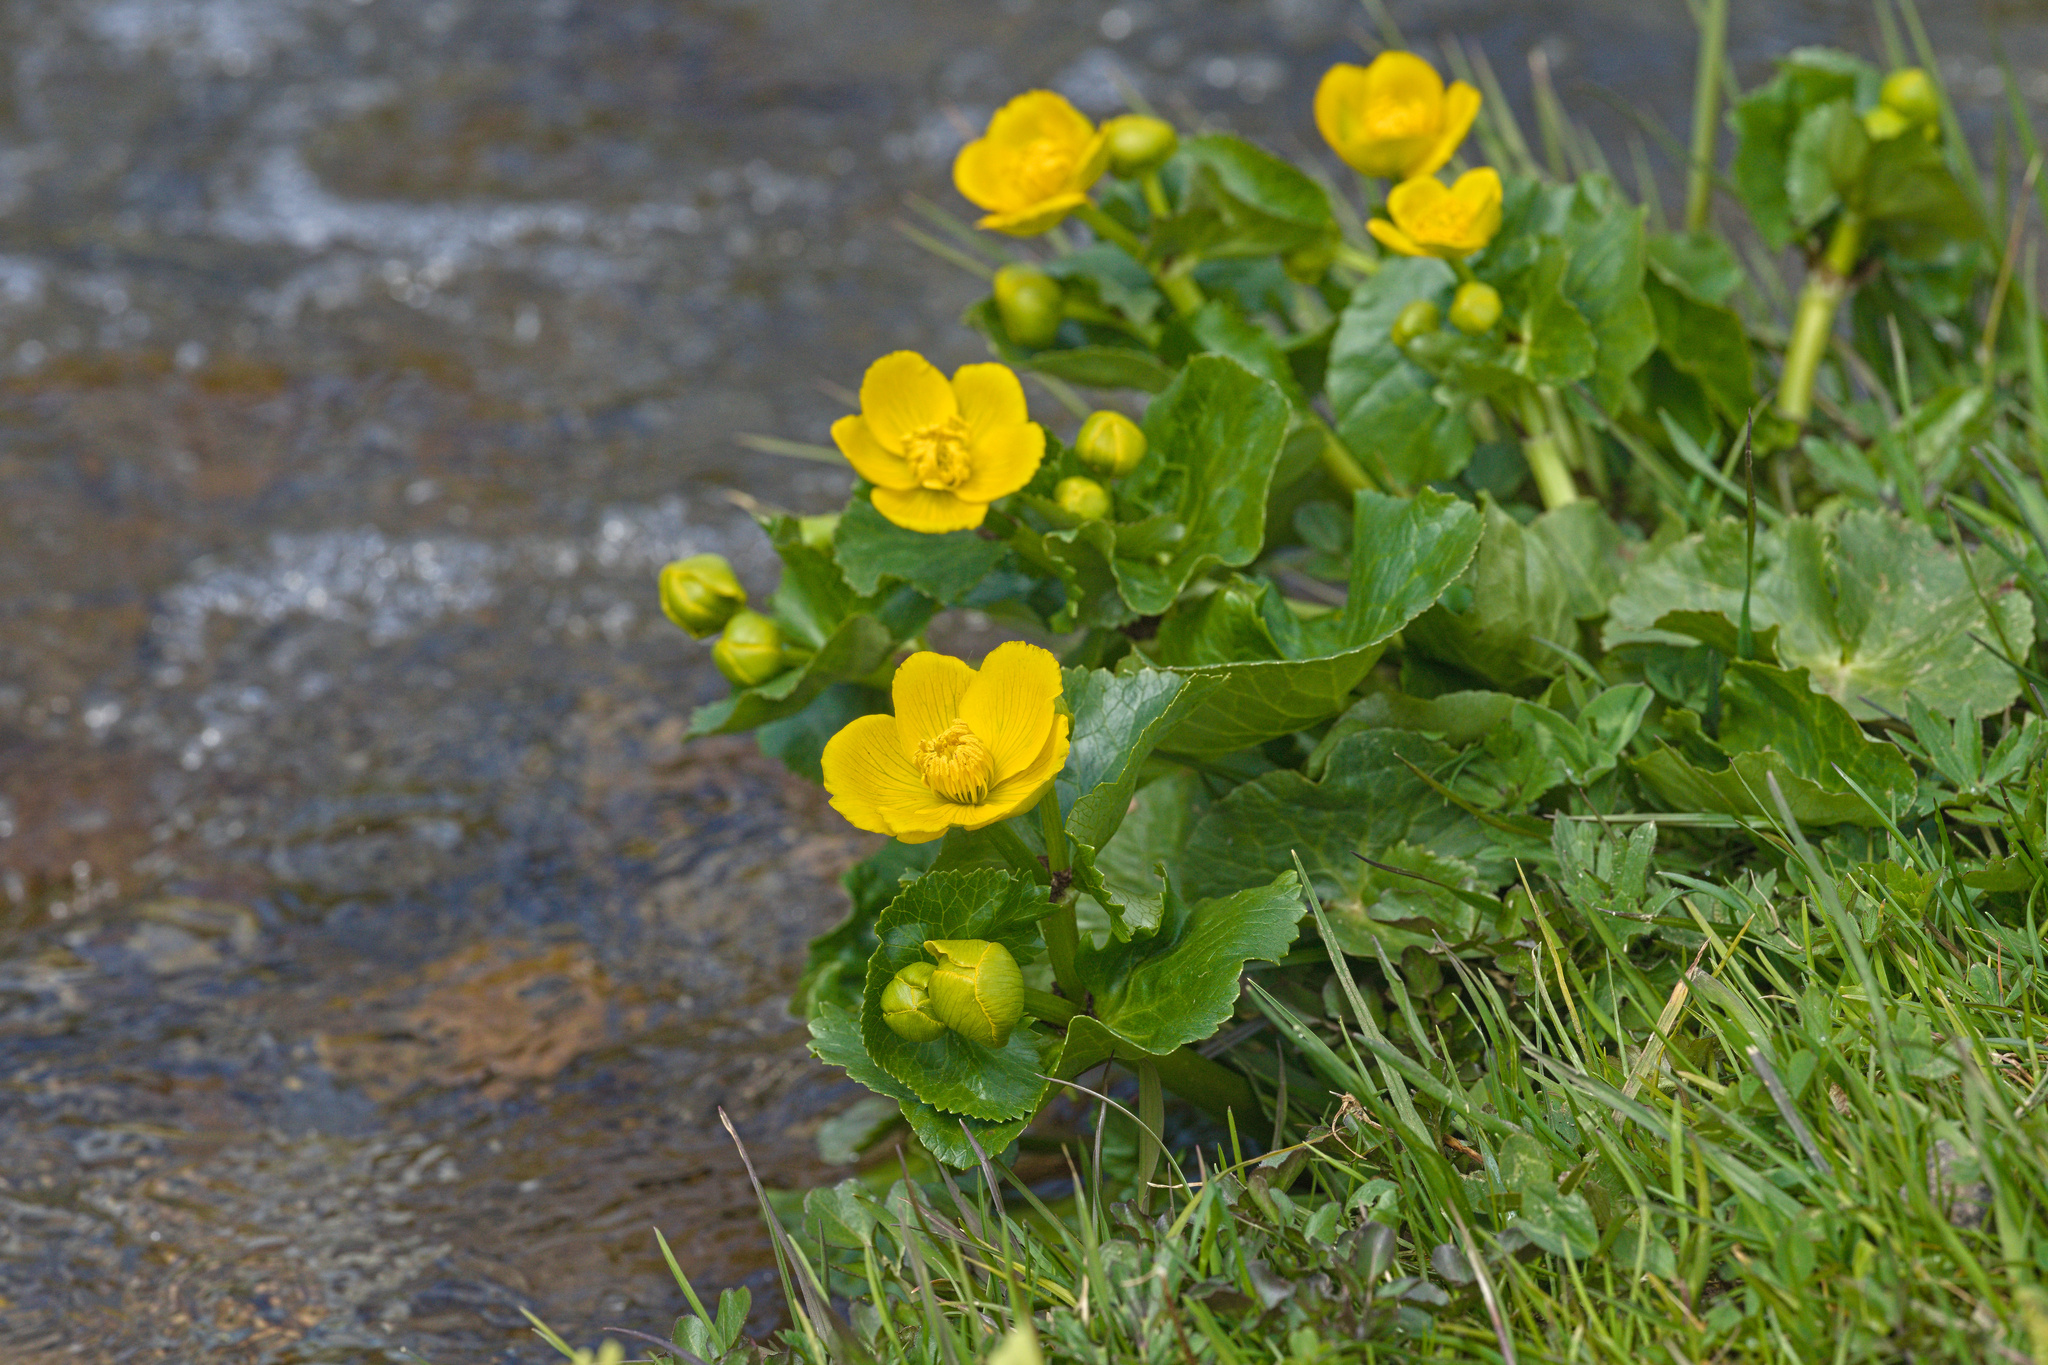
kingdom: Plantae
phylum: Tracheophyta
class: Magnoliopsida
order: Ranunculales
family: Ranunculaceae
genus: Caltha
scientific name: Caltha palustris
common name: Marsh marigold
